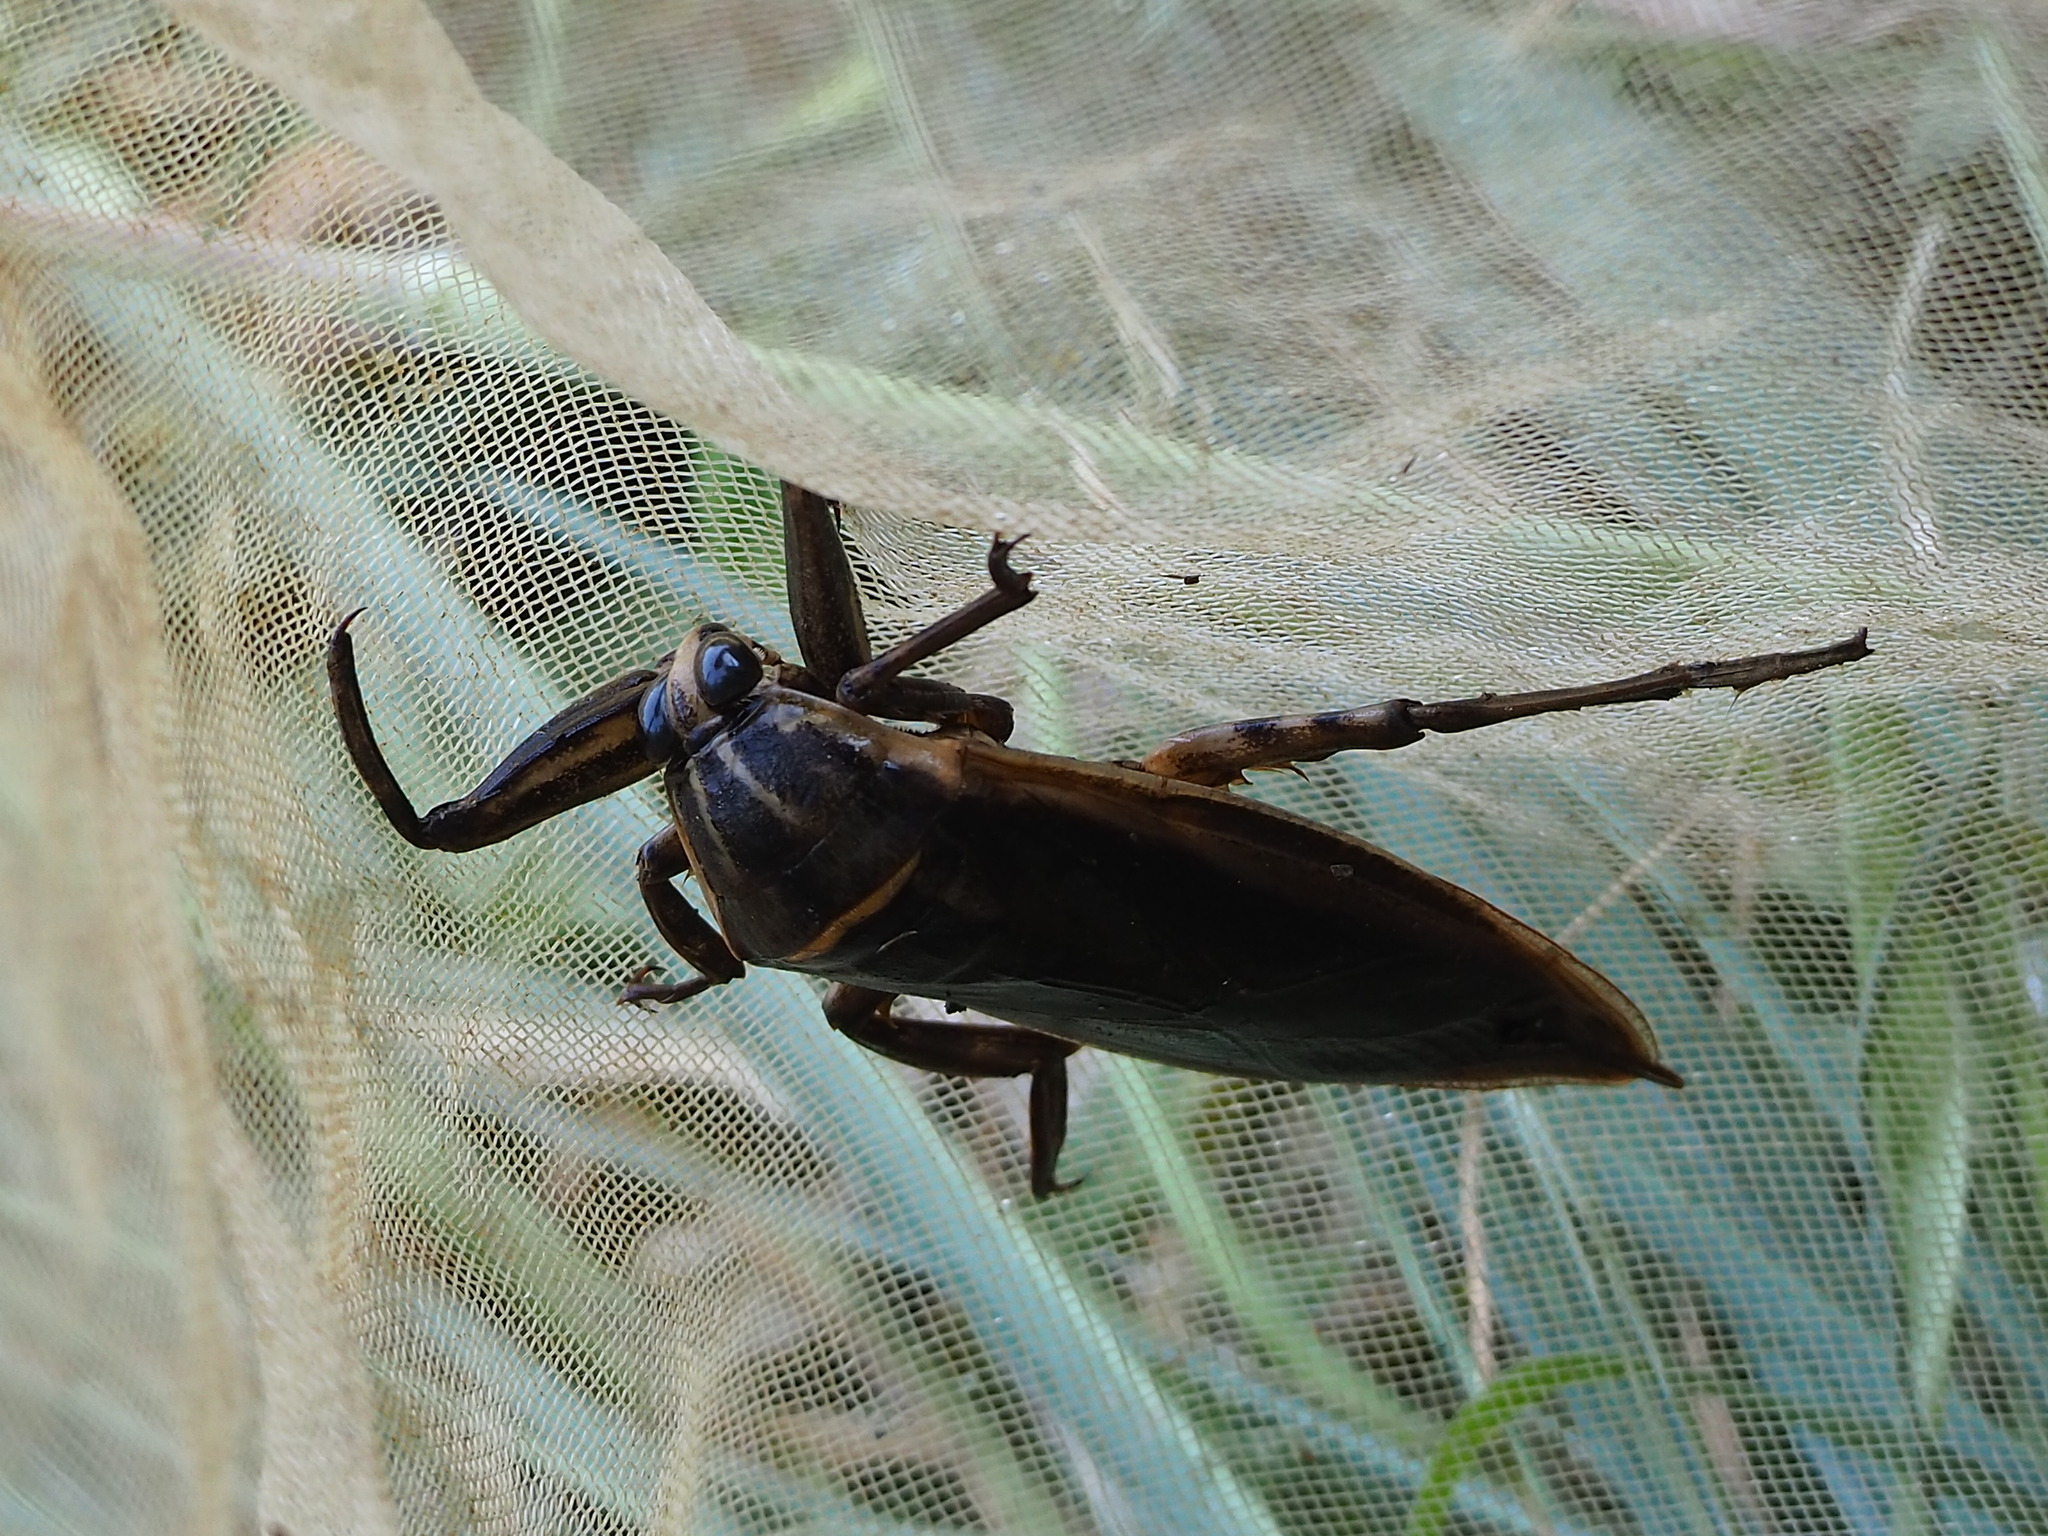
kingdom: Animalia
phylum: Arthropoda
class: Insecta
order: Hemiptera
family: Belostomatidae
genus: Lethocerus
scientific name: Lethocerus indicus
